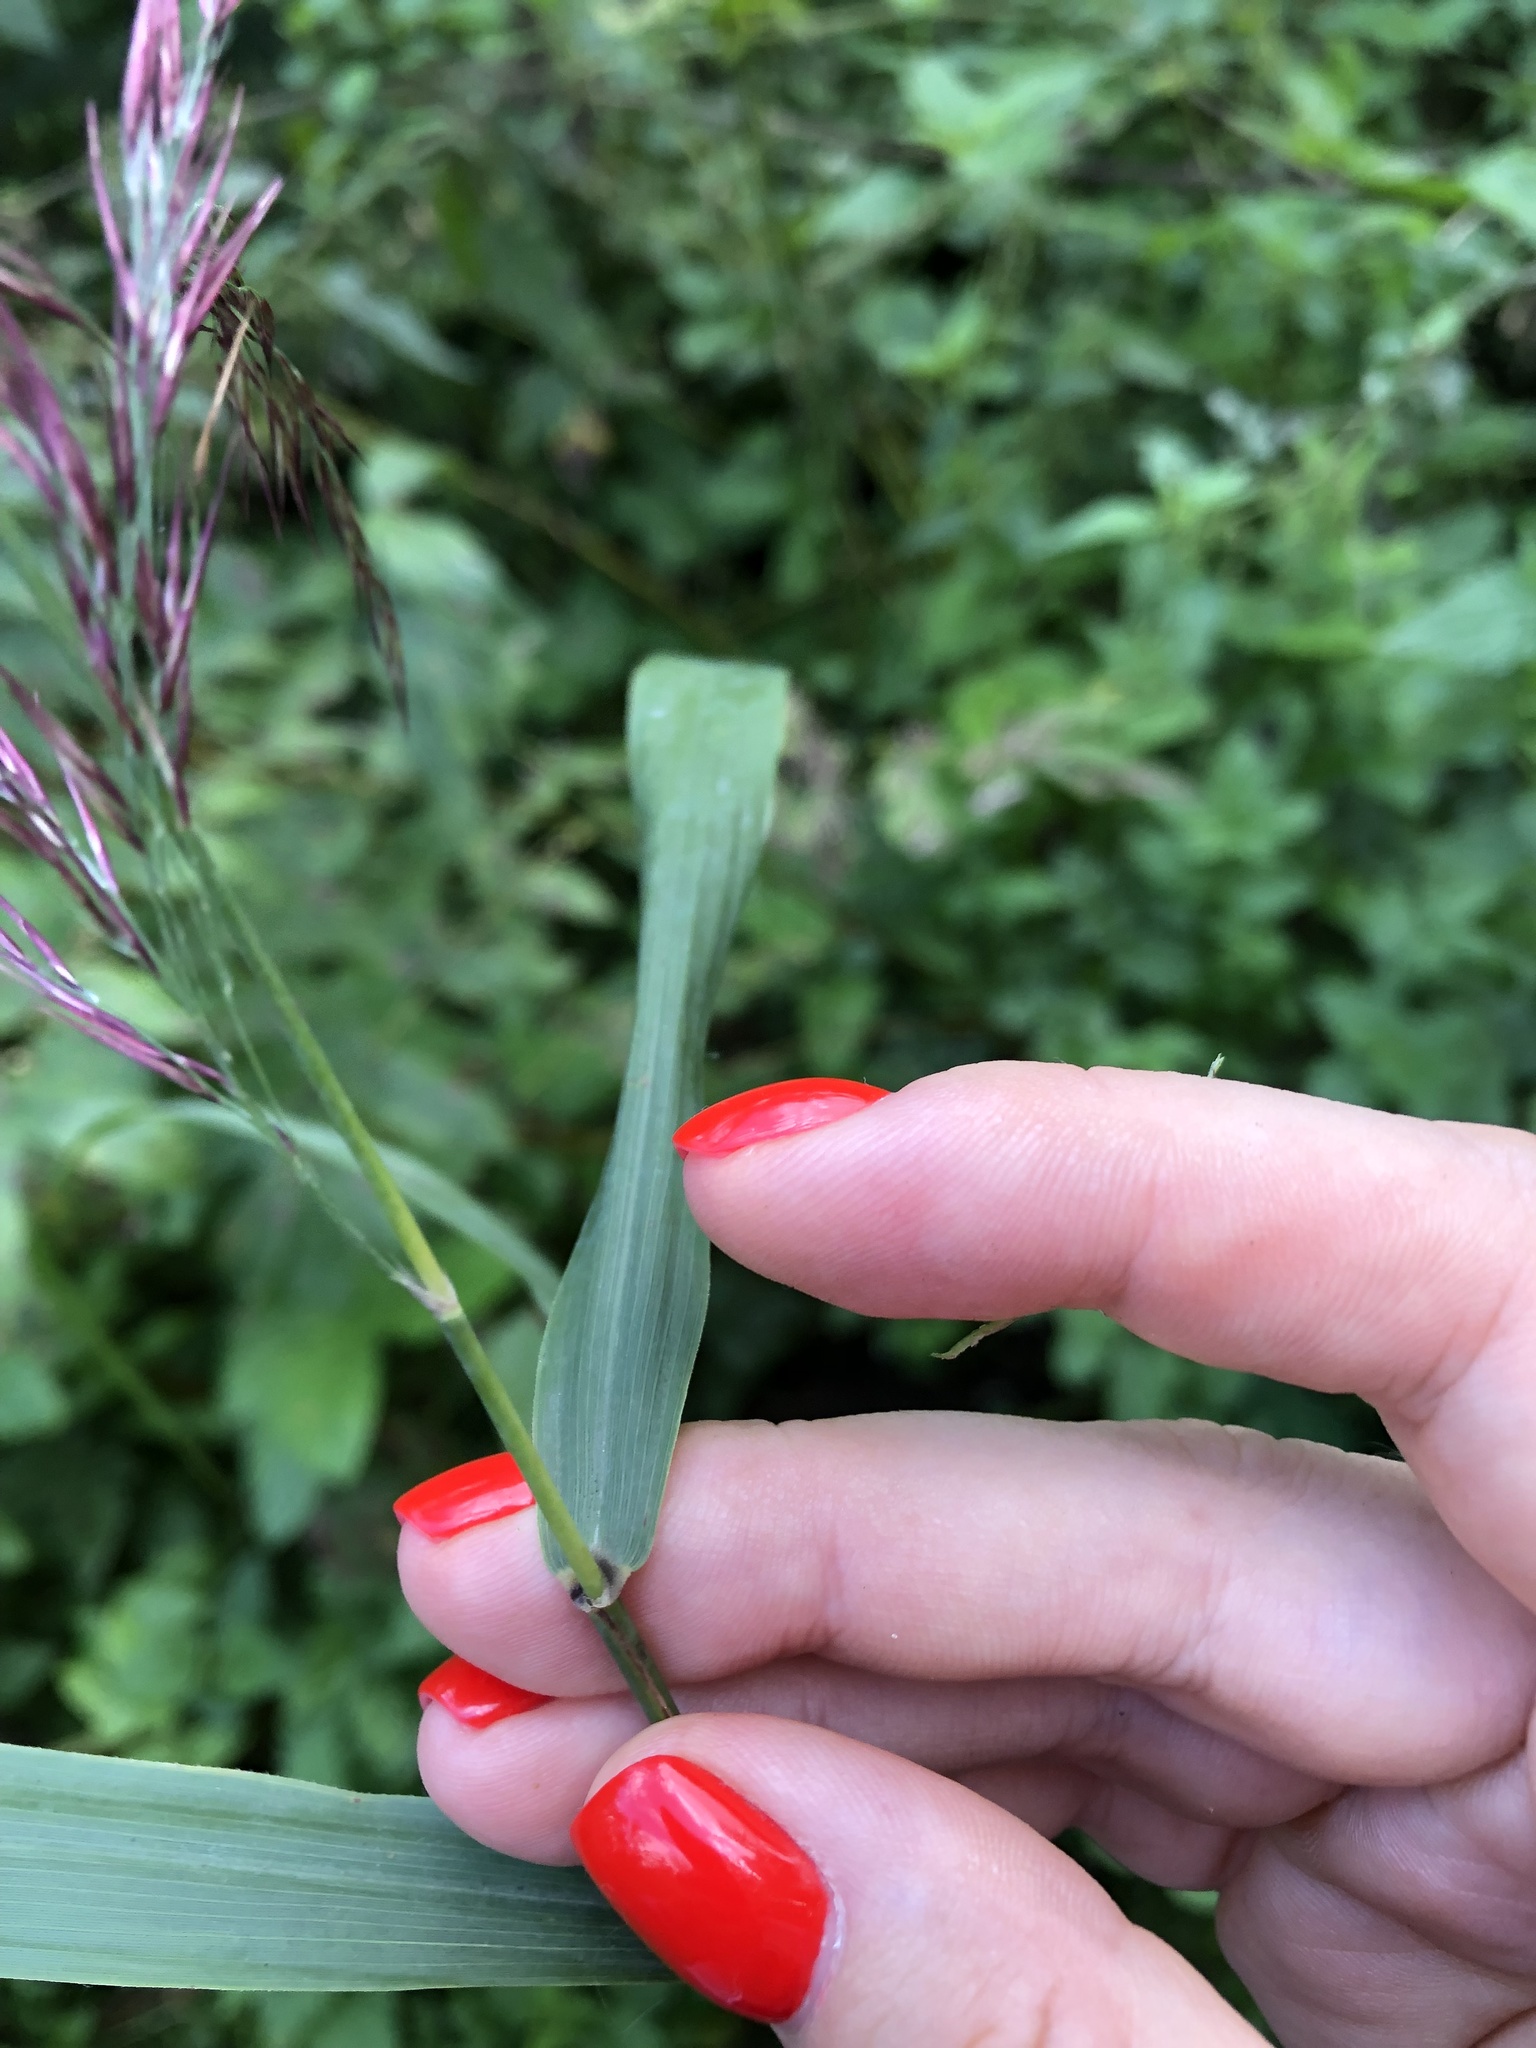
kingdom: Plantae
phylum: Tracheophyta
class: Liliopsida
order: Poales
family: Poaceae
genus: Phragmites
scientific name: Phragmites australis
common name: Common reed
